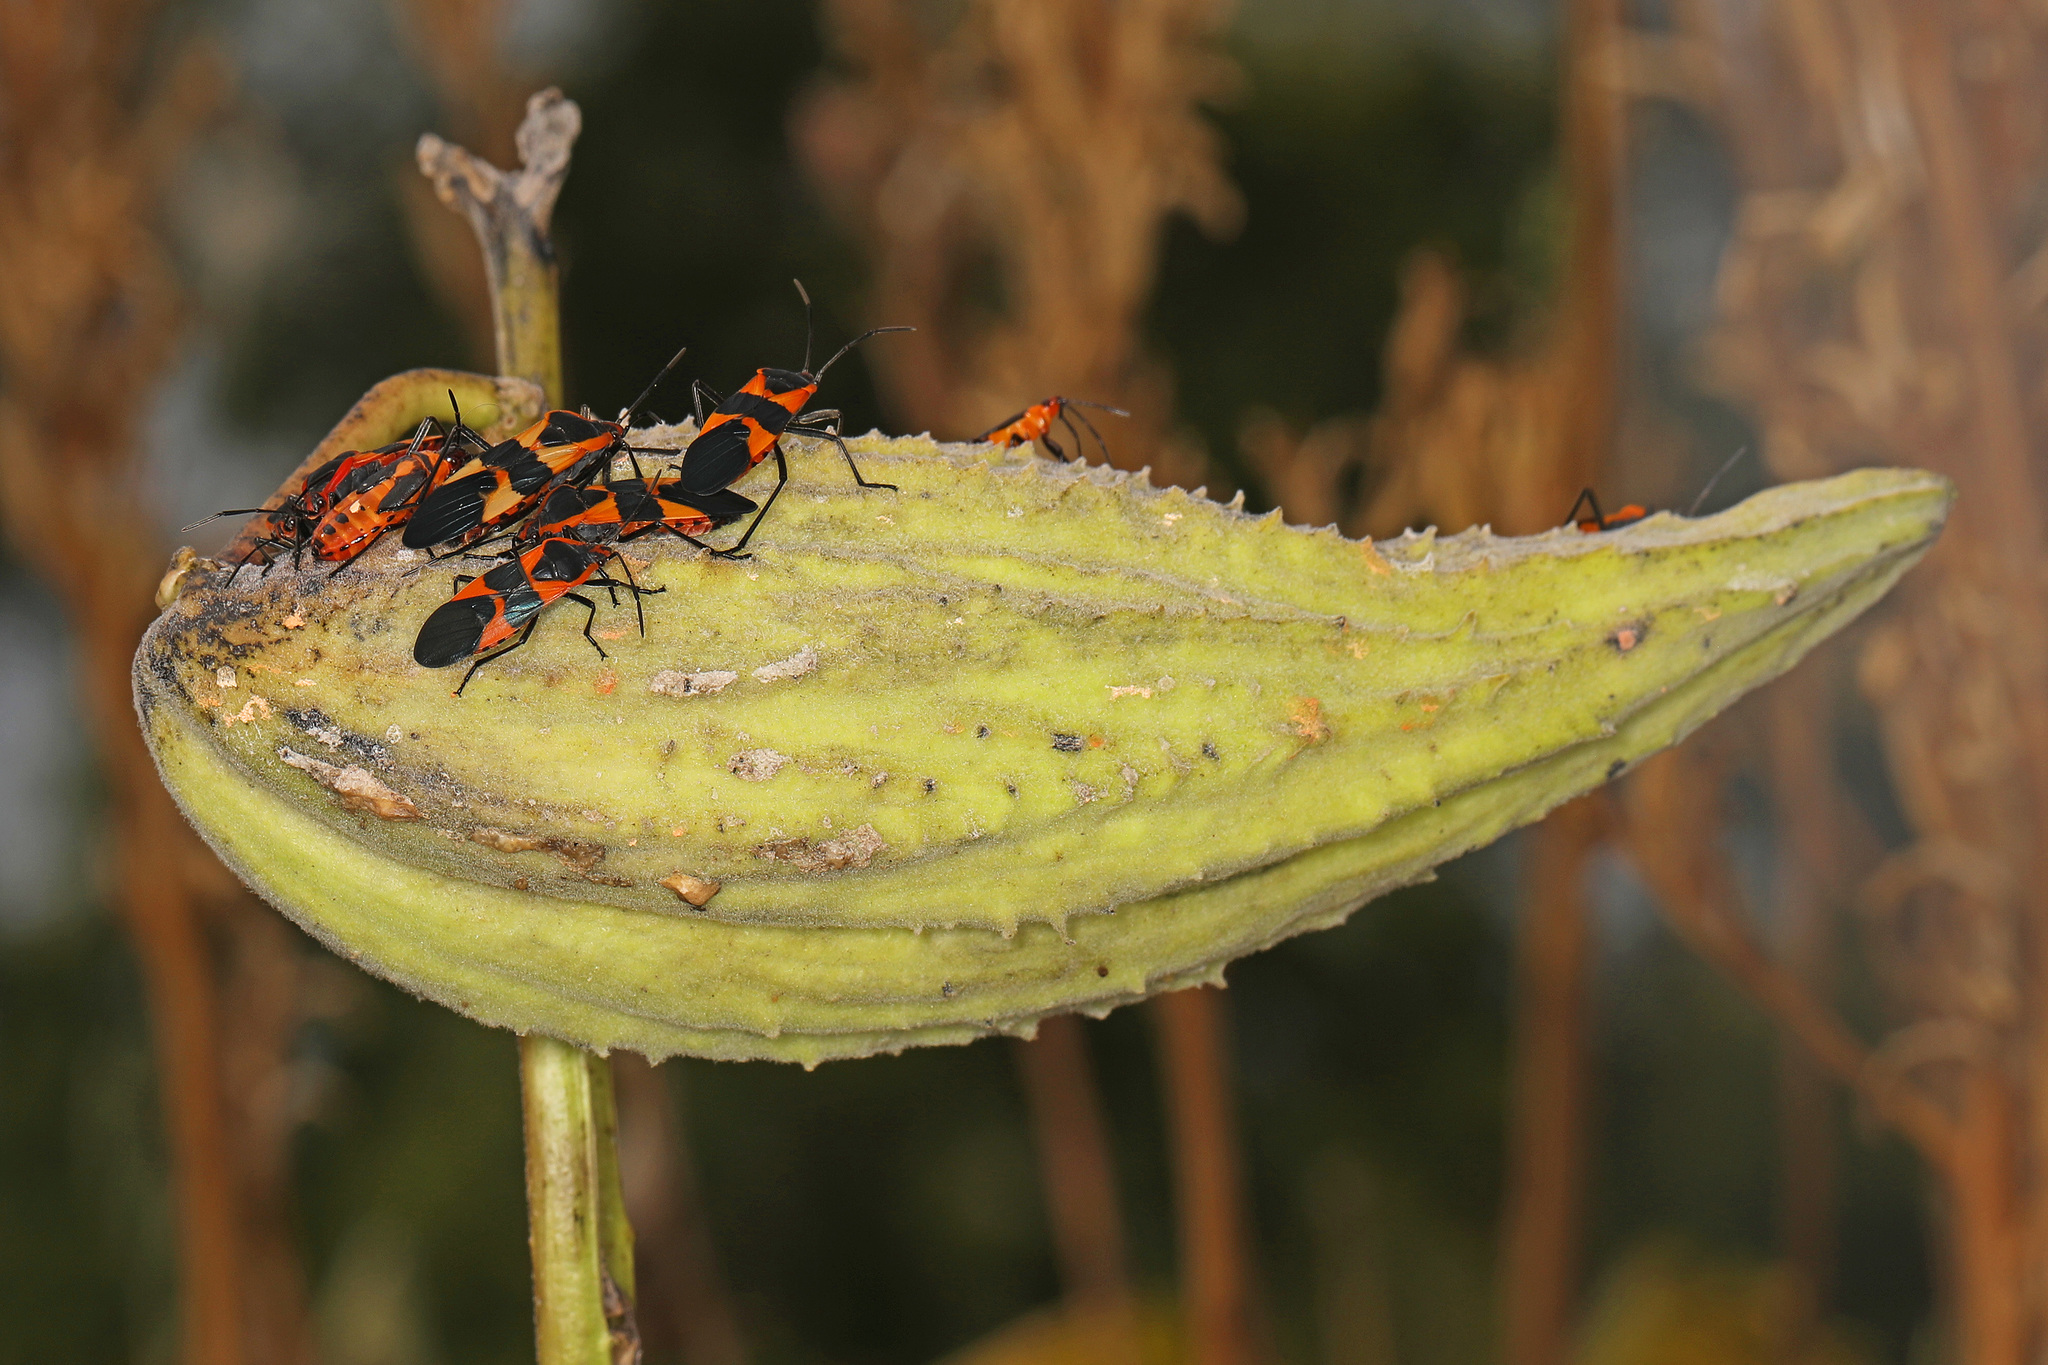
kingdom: Animalia
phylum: Arthropoda
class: Insecta
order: Hemiptera
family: Lygaeidae
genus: Oncopeltus
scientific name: Oncopeltus fasciatus
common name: Large milkweed bug
